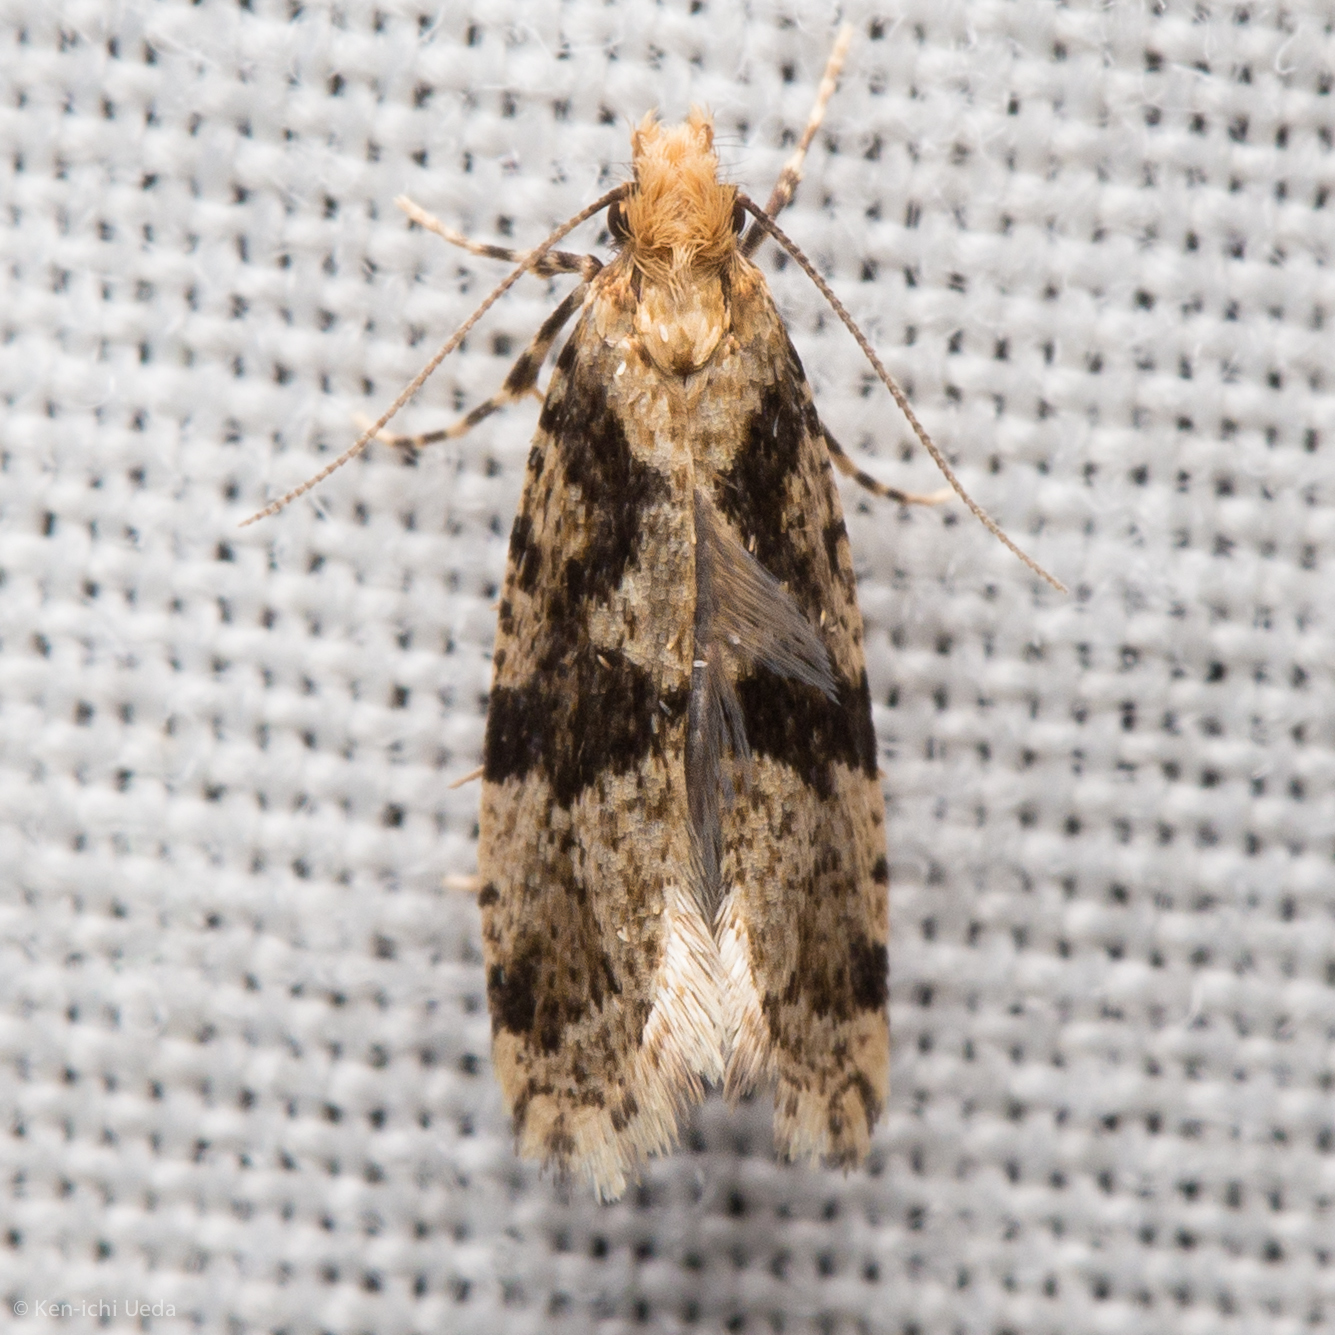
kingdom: Animalia
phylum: Arthropoda
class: Insecta
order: Lepidoptera
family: Tineidae
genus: Scardiella
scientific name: Scardiella approximatella
